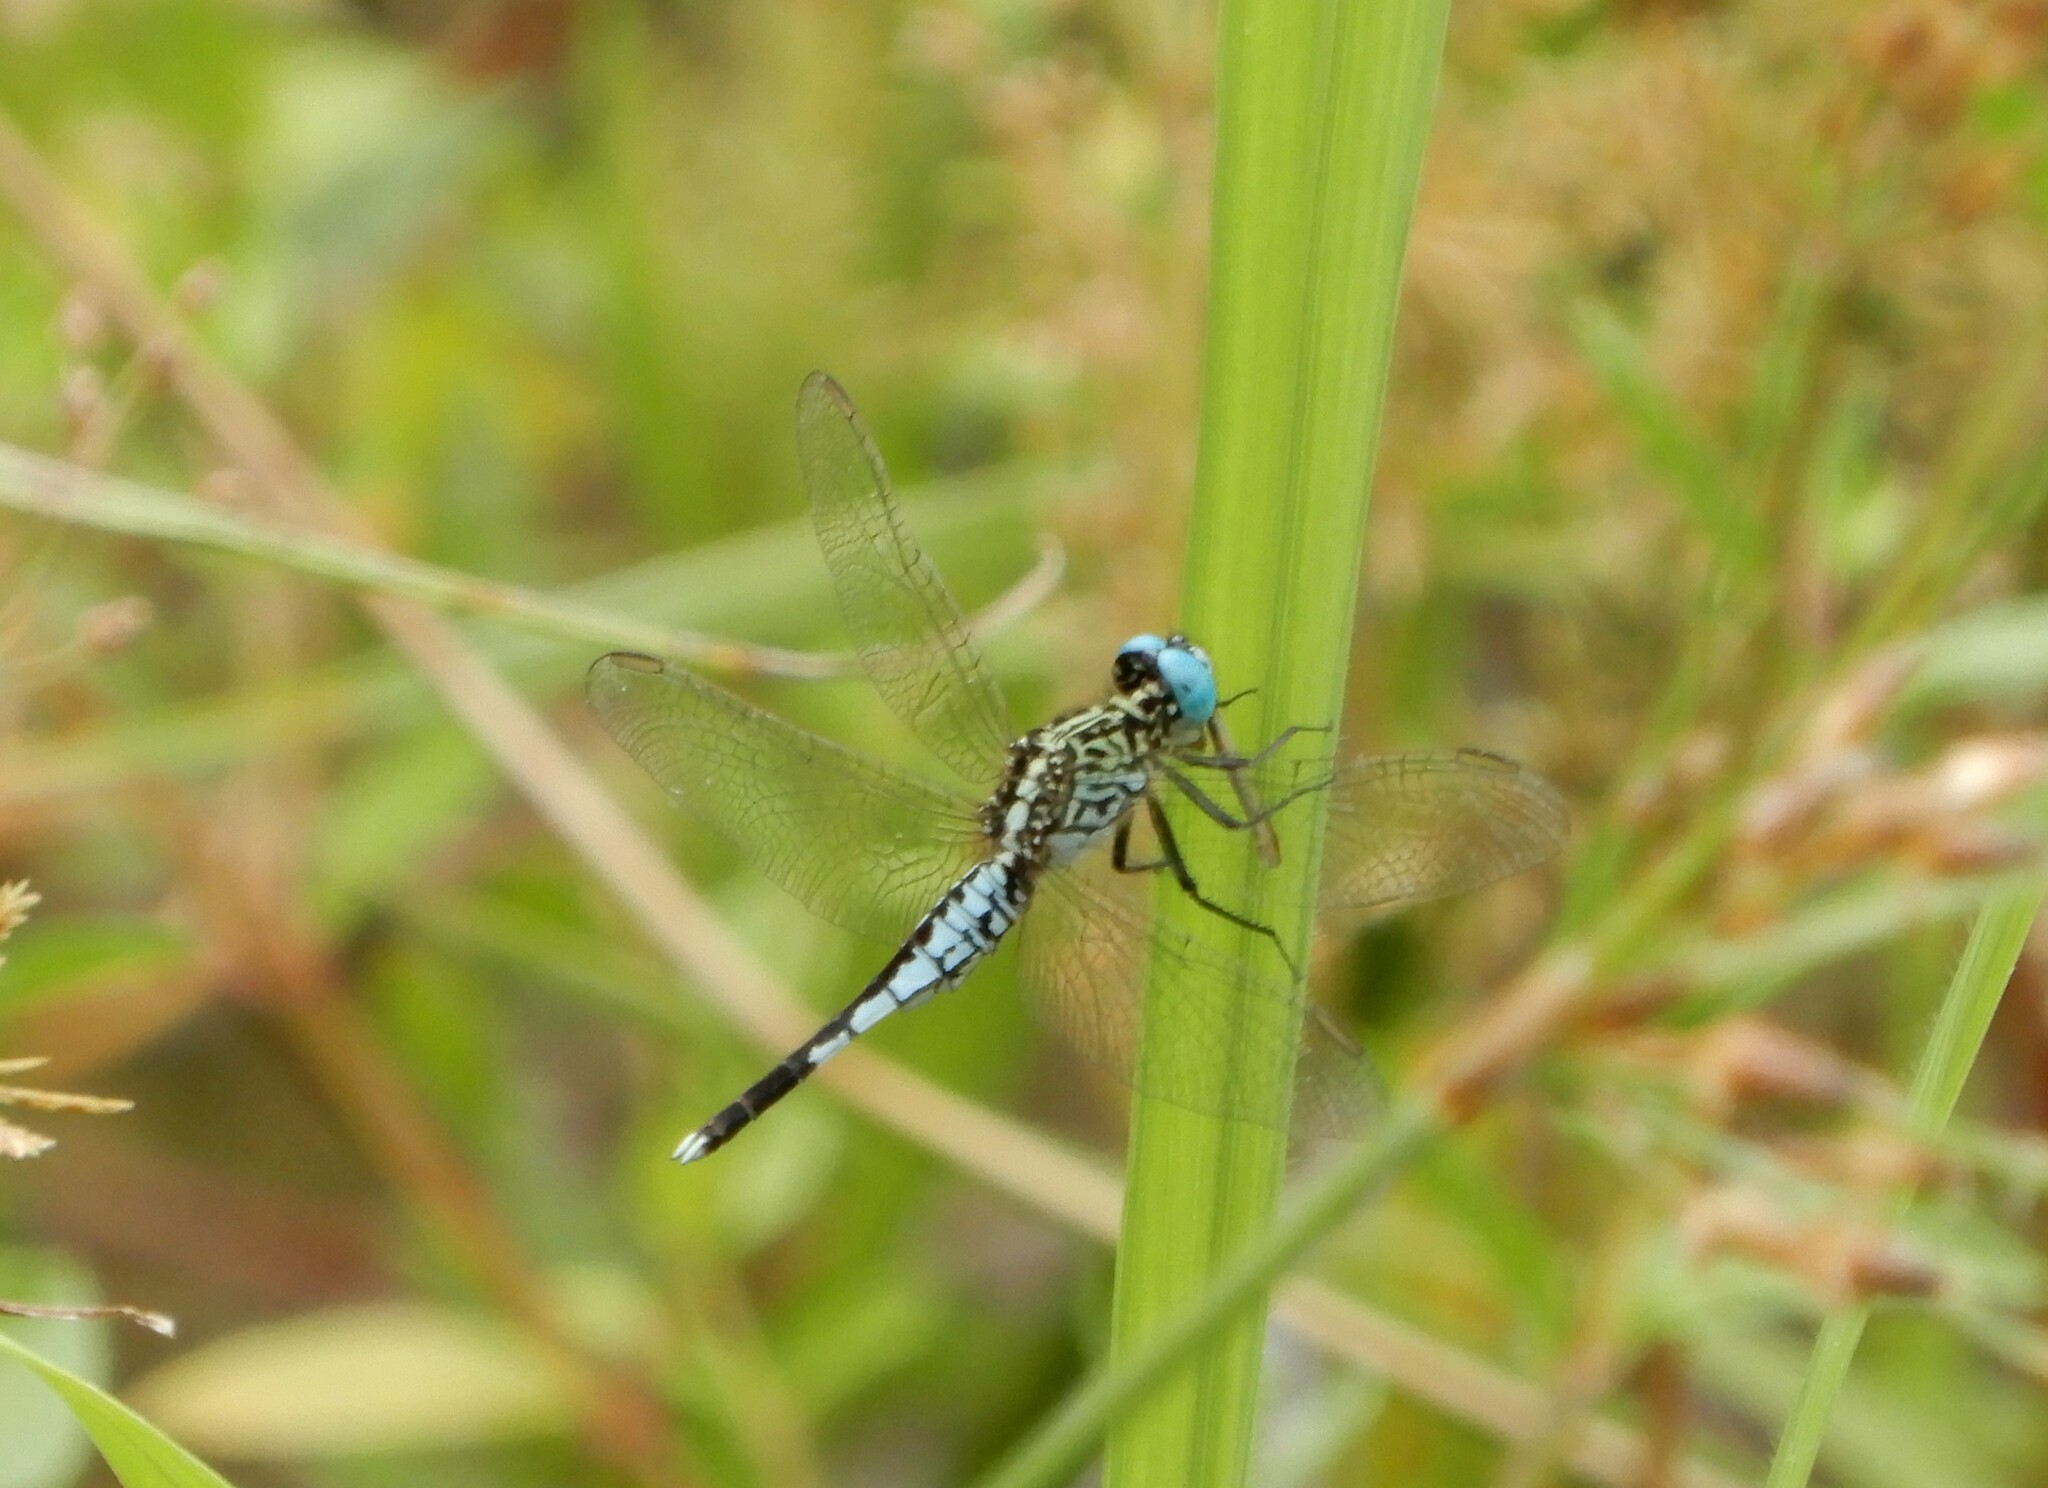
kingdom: Animalia
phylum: Arthropoda
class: Insecta
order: Odonata
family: Libellulidae
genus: Acisoma
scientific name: Acisoma panorpoides
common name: Asian pintail
